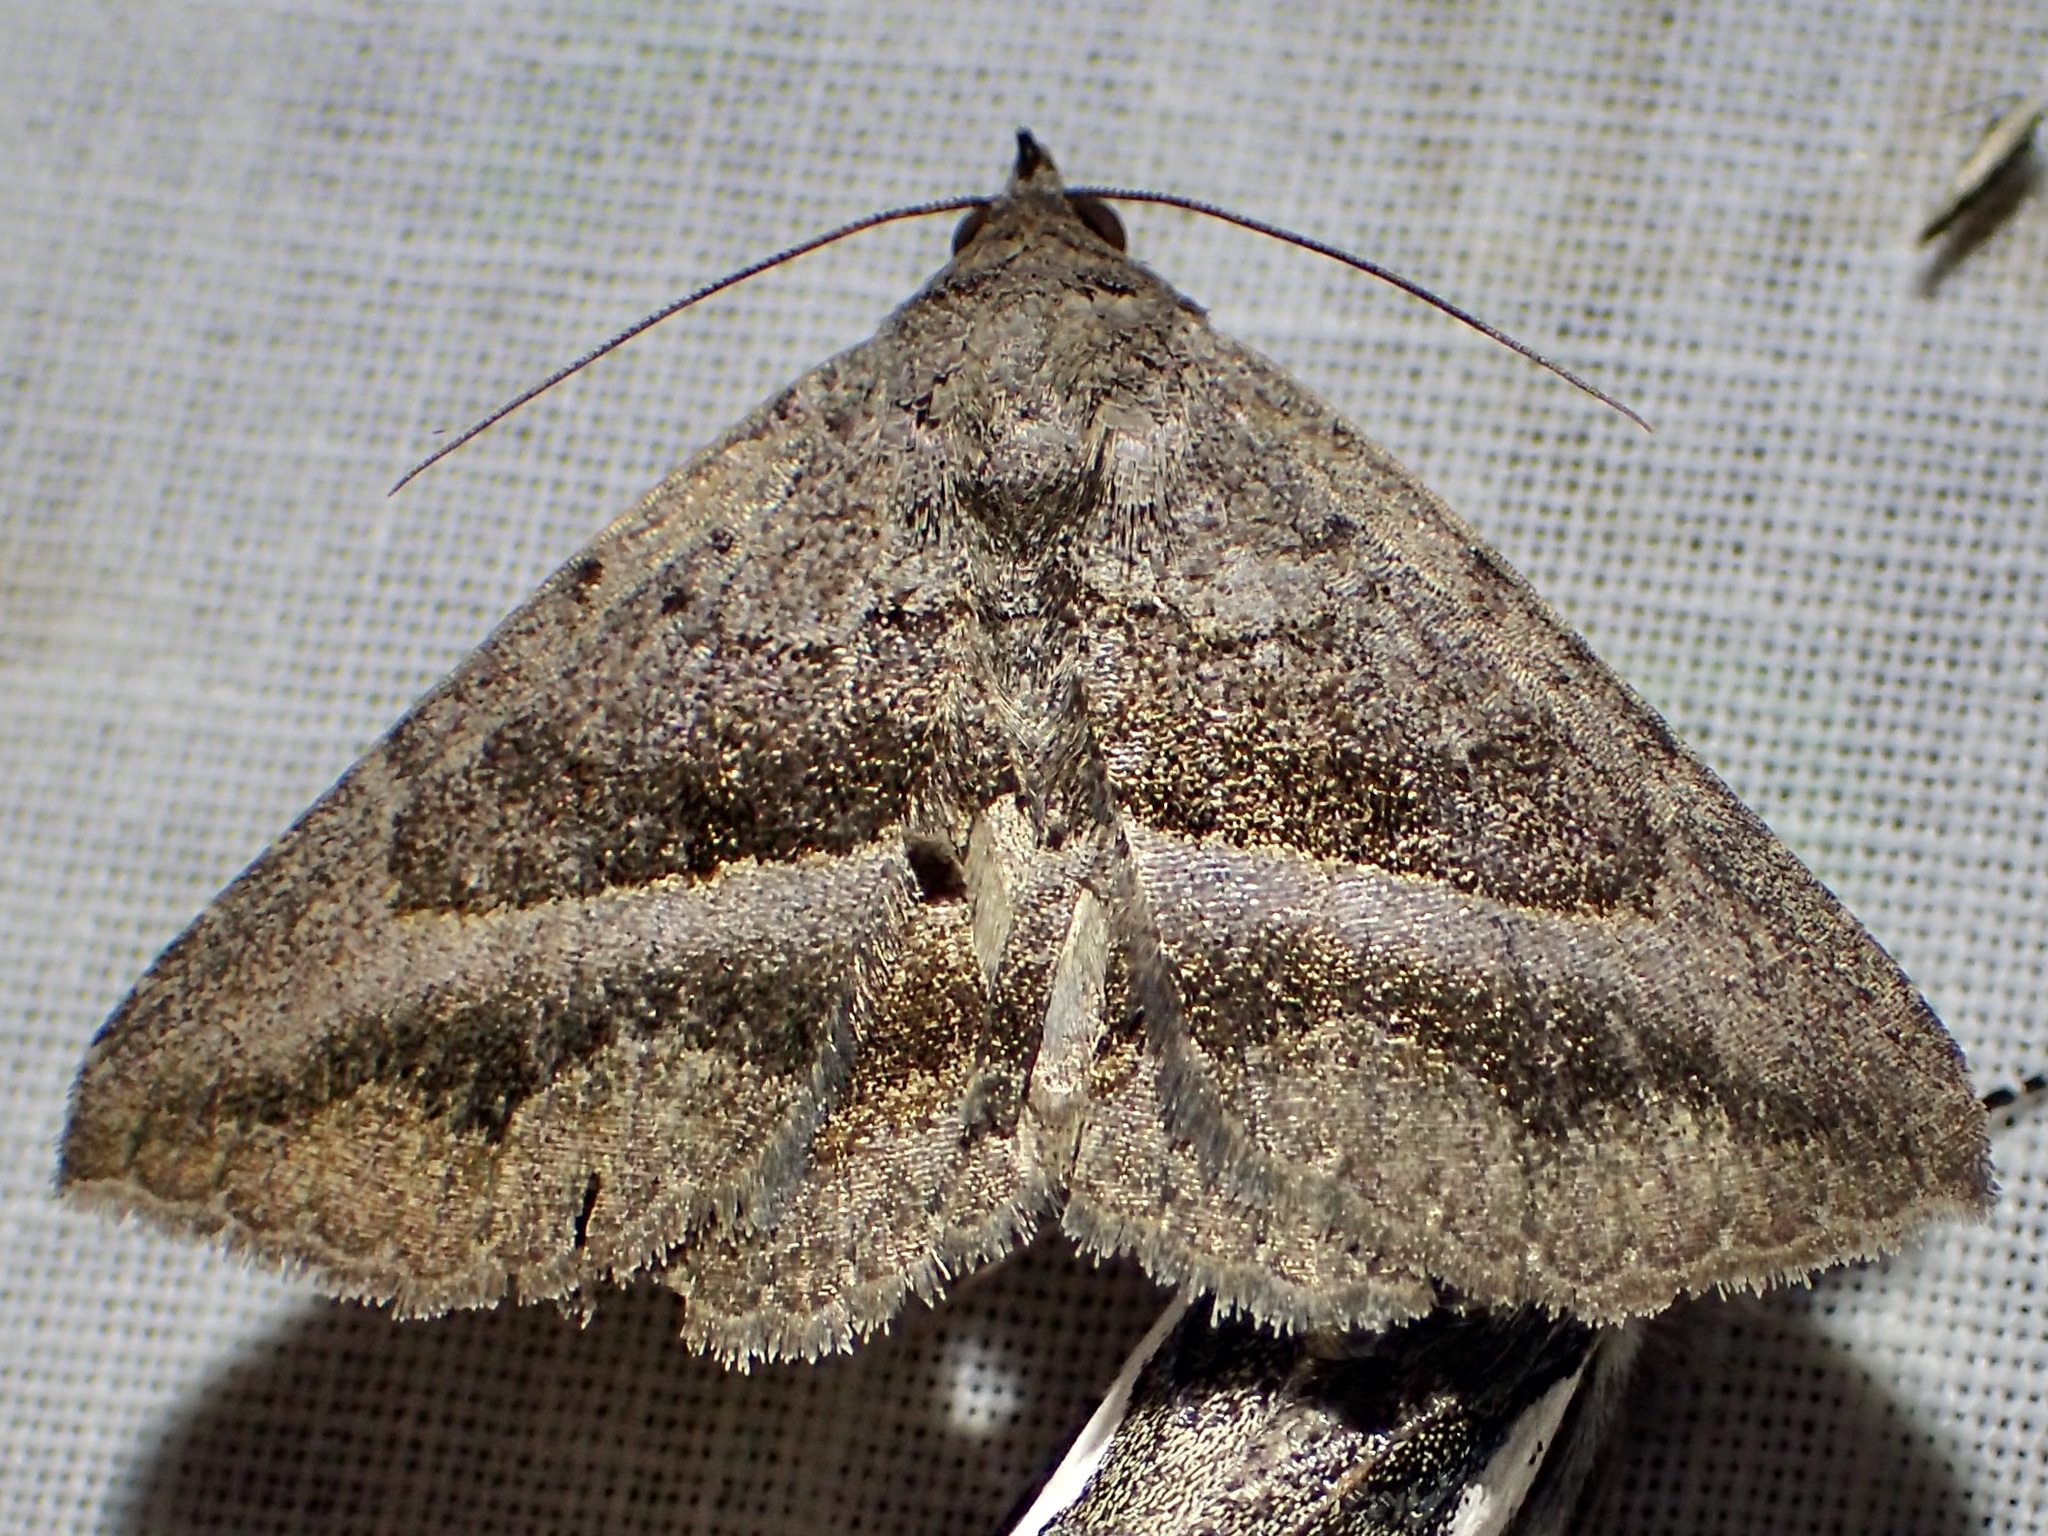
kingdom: Animalia
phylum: Arthropoda
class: Insecta
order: Lepidoptera
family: Erebidae
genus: Lesmone
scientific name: Lesmone griseipennis
